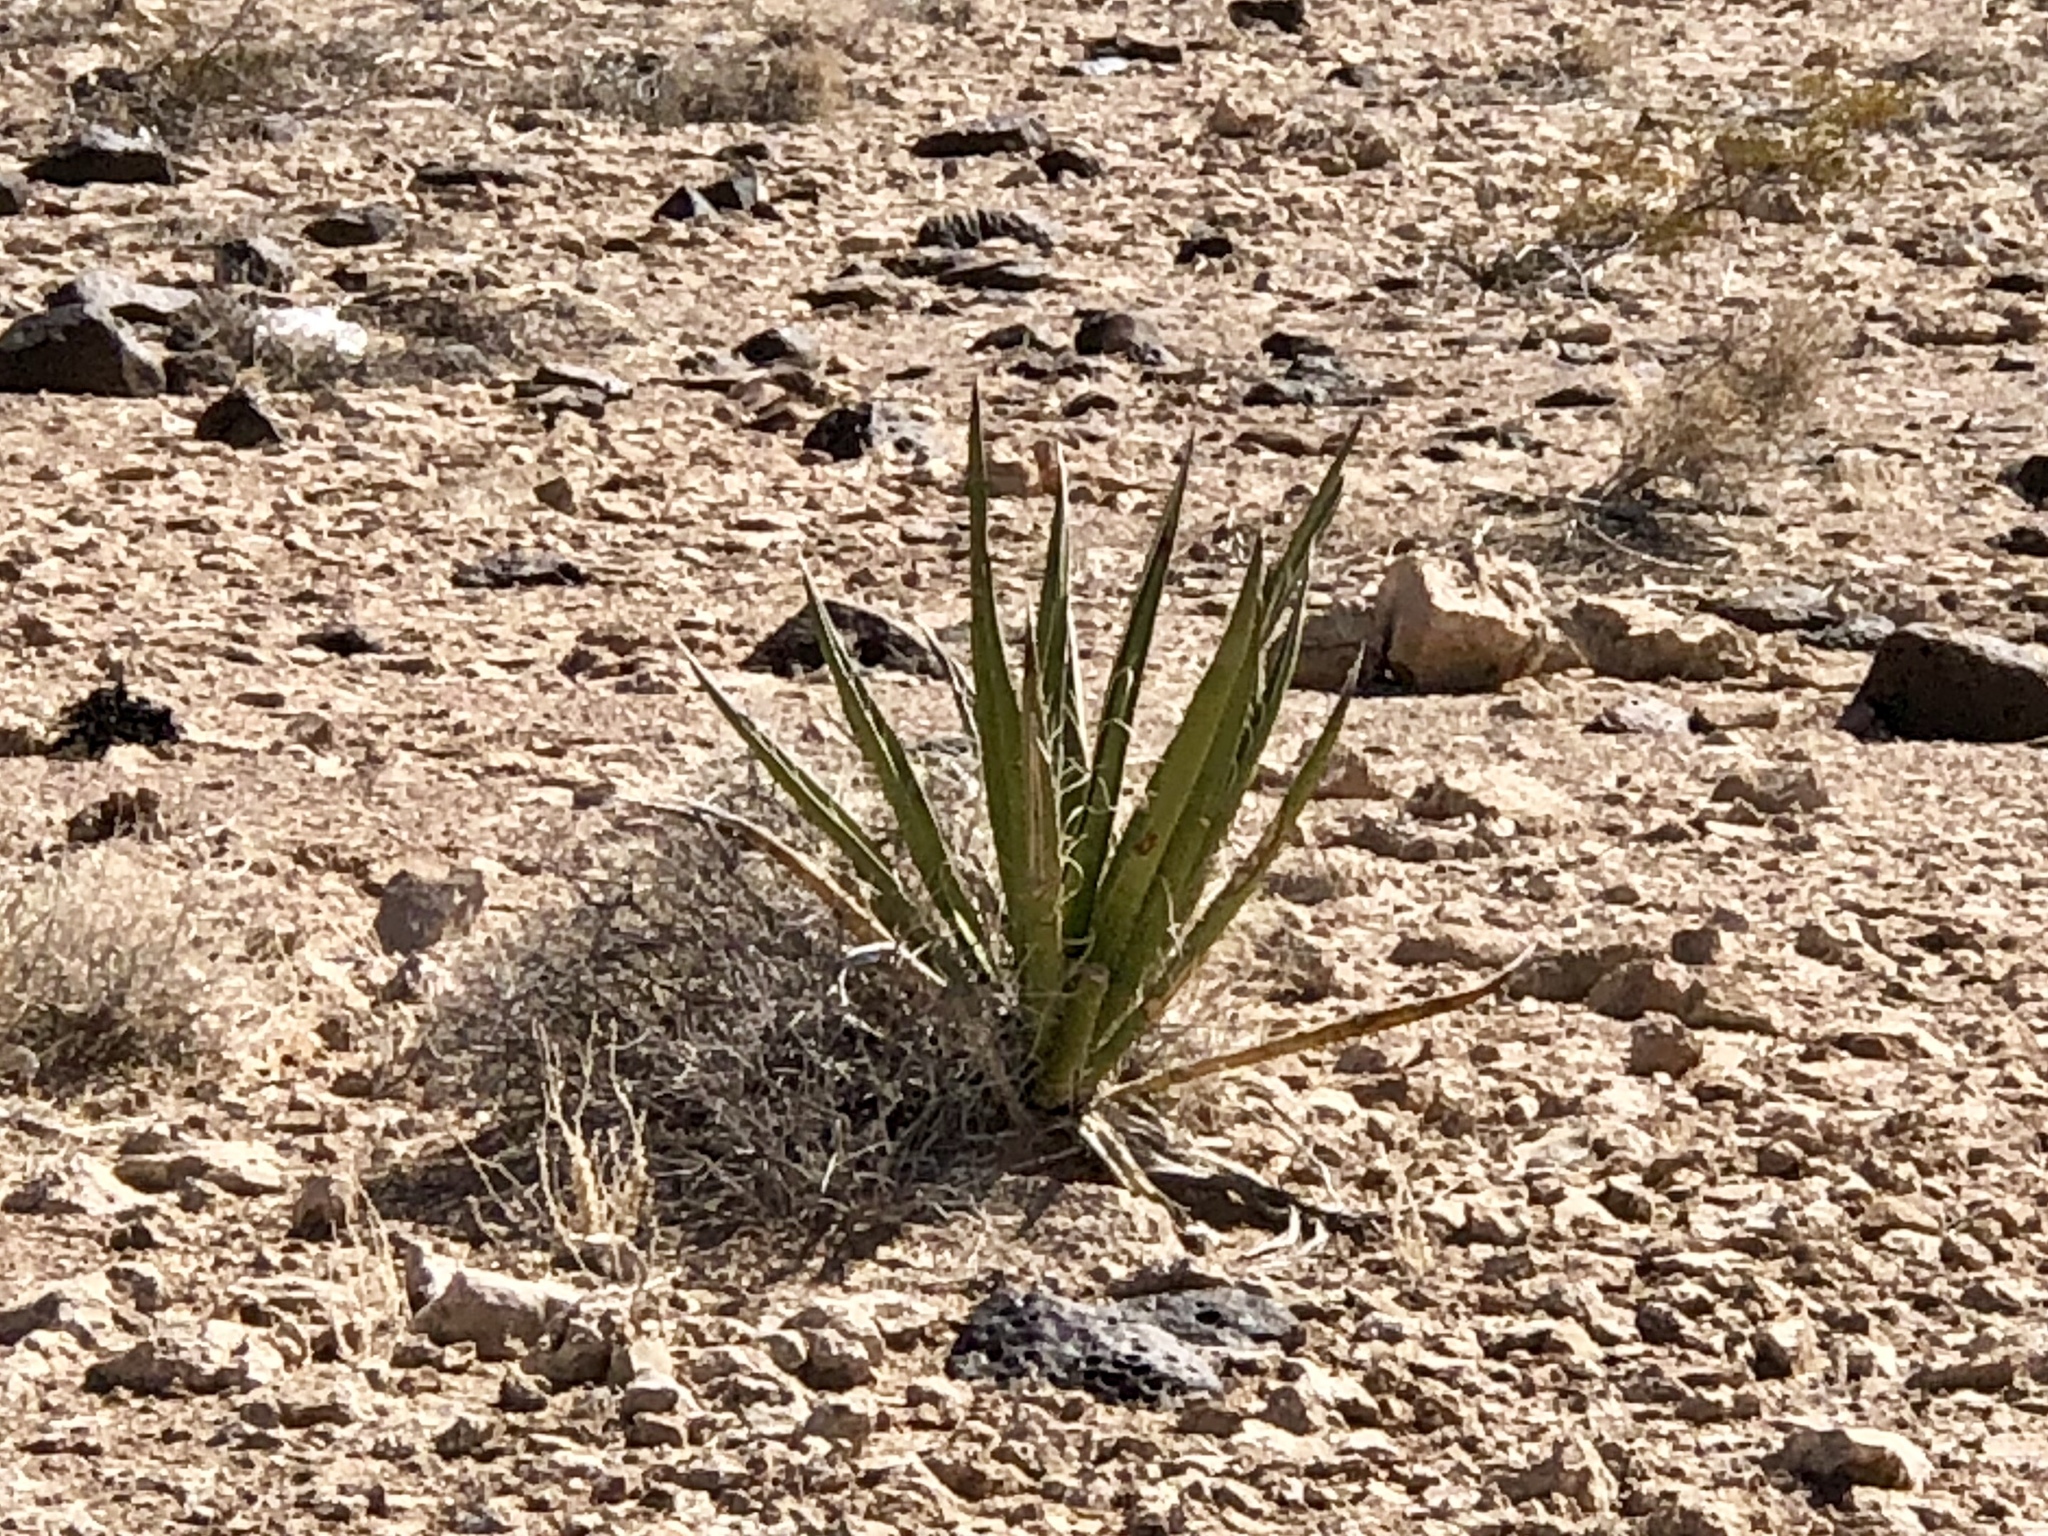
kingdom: Plantae
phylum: Tracheophyta
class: Liliopsida
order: Asparagales
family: Asparagaceae
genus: Yucca
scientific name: Yucca schidigera
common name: Mojave yucca
